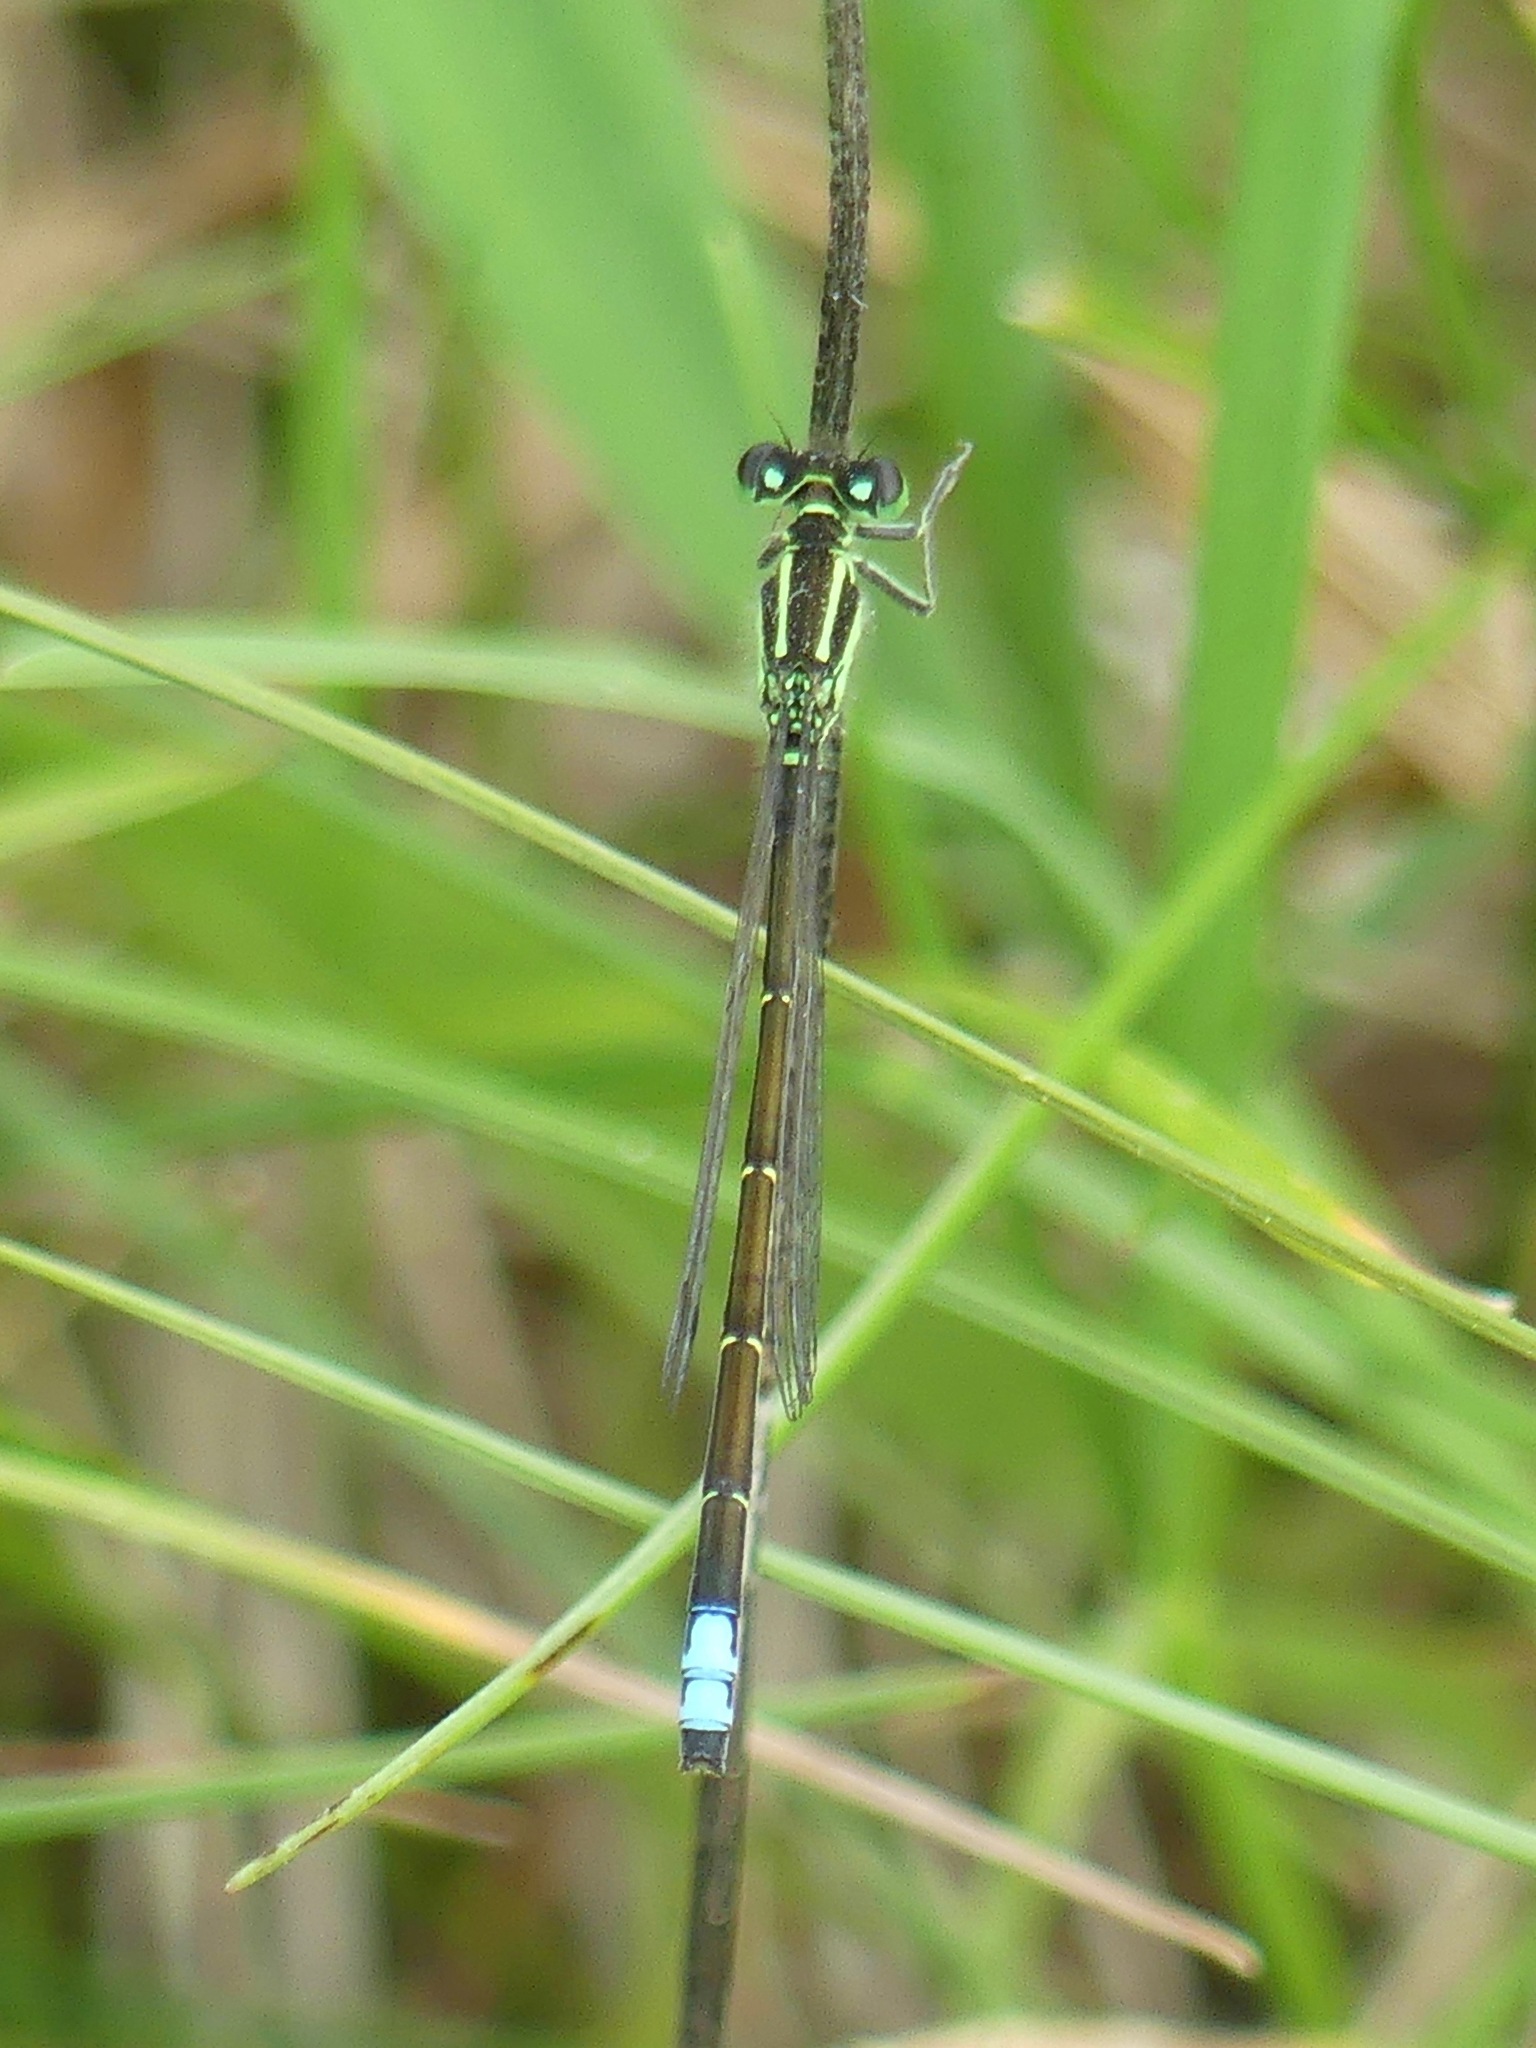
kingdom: Animalia
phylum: Arthropoda
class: Insecta
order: Odonata
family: Coenagrionidae
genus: Ischnura
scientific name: Ischnura verticalis
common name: Eastern forktail
